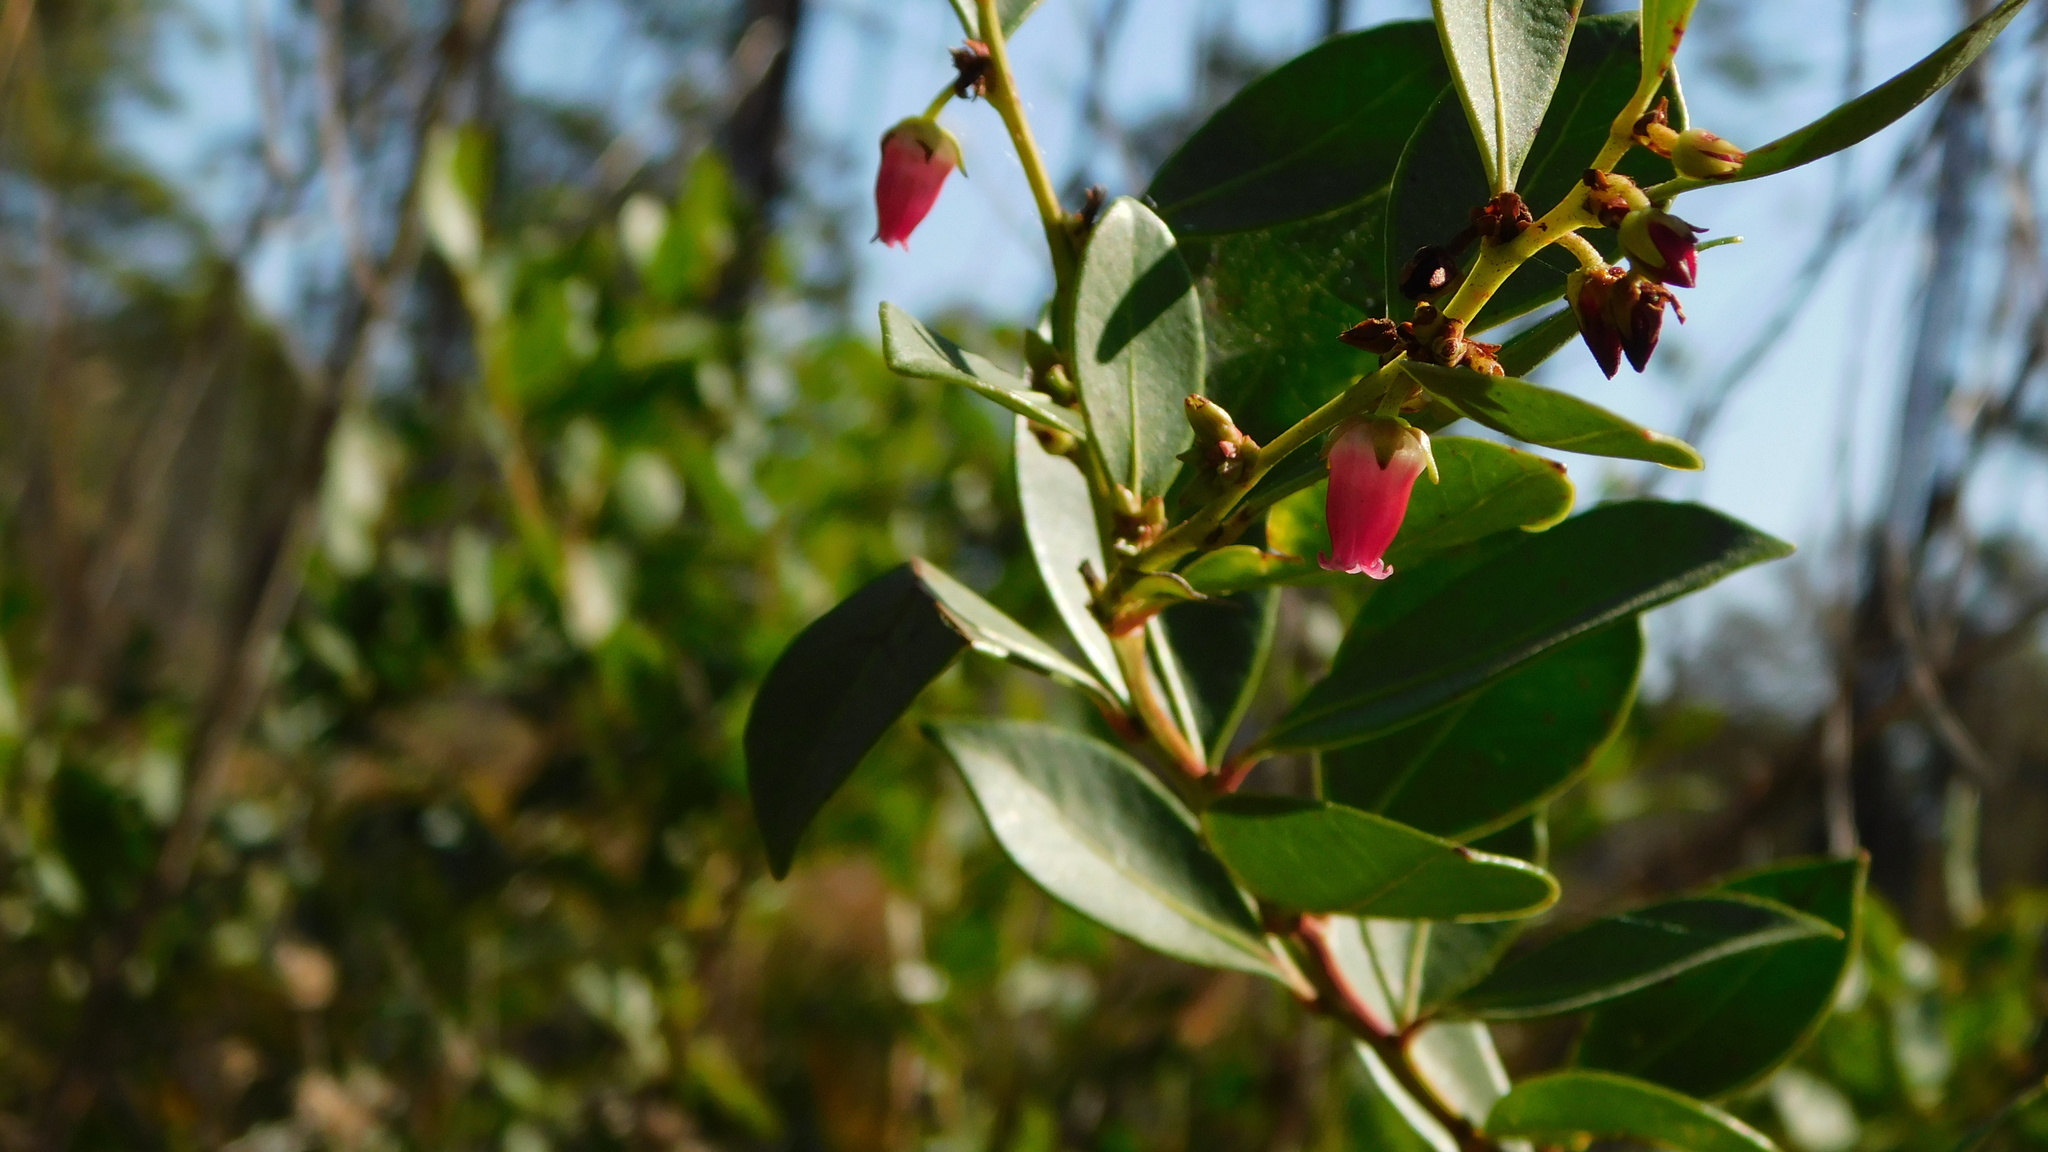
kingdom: Plantae
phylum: Tracheophyta
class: Magnoliopsida
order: Ericales
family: Ericaceae
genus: Lyonia
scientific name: Lyonia lucida
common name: Fetterbush
